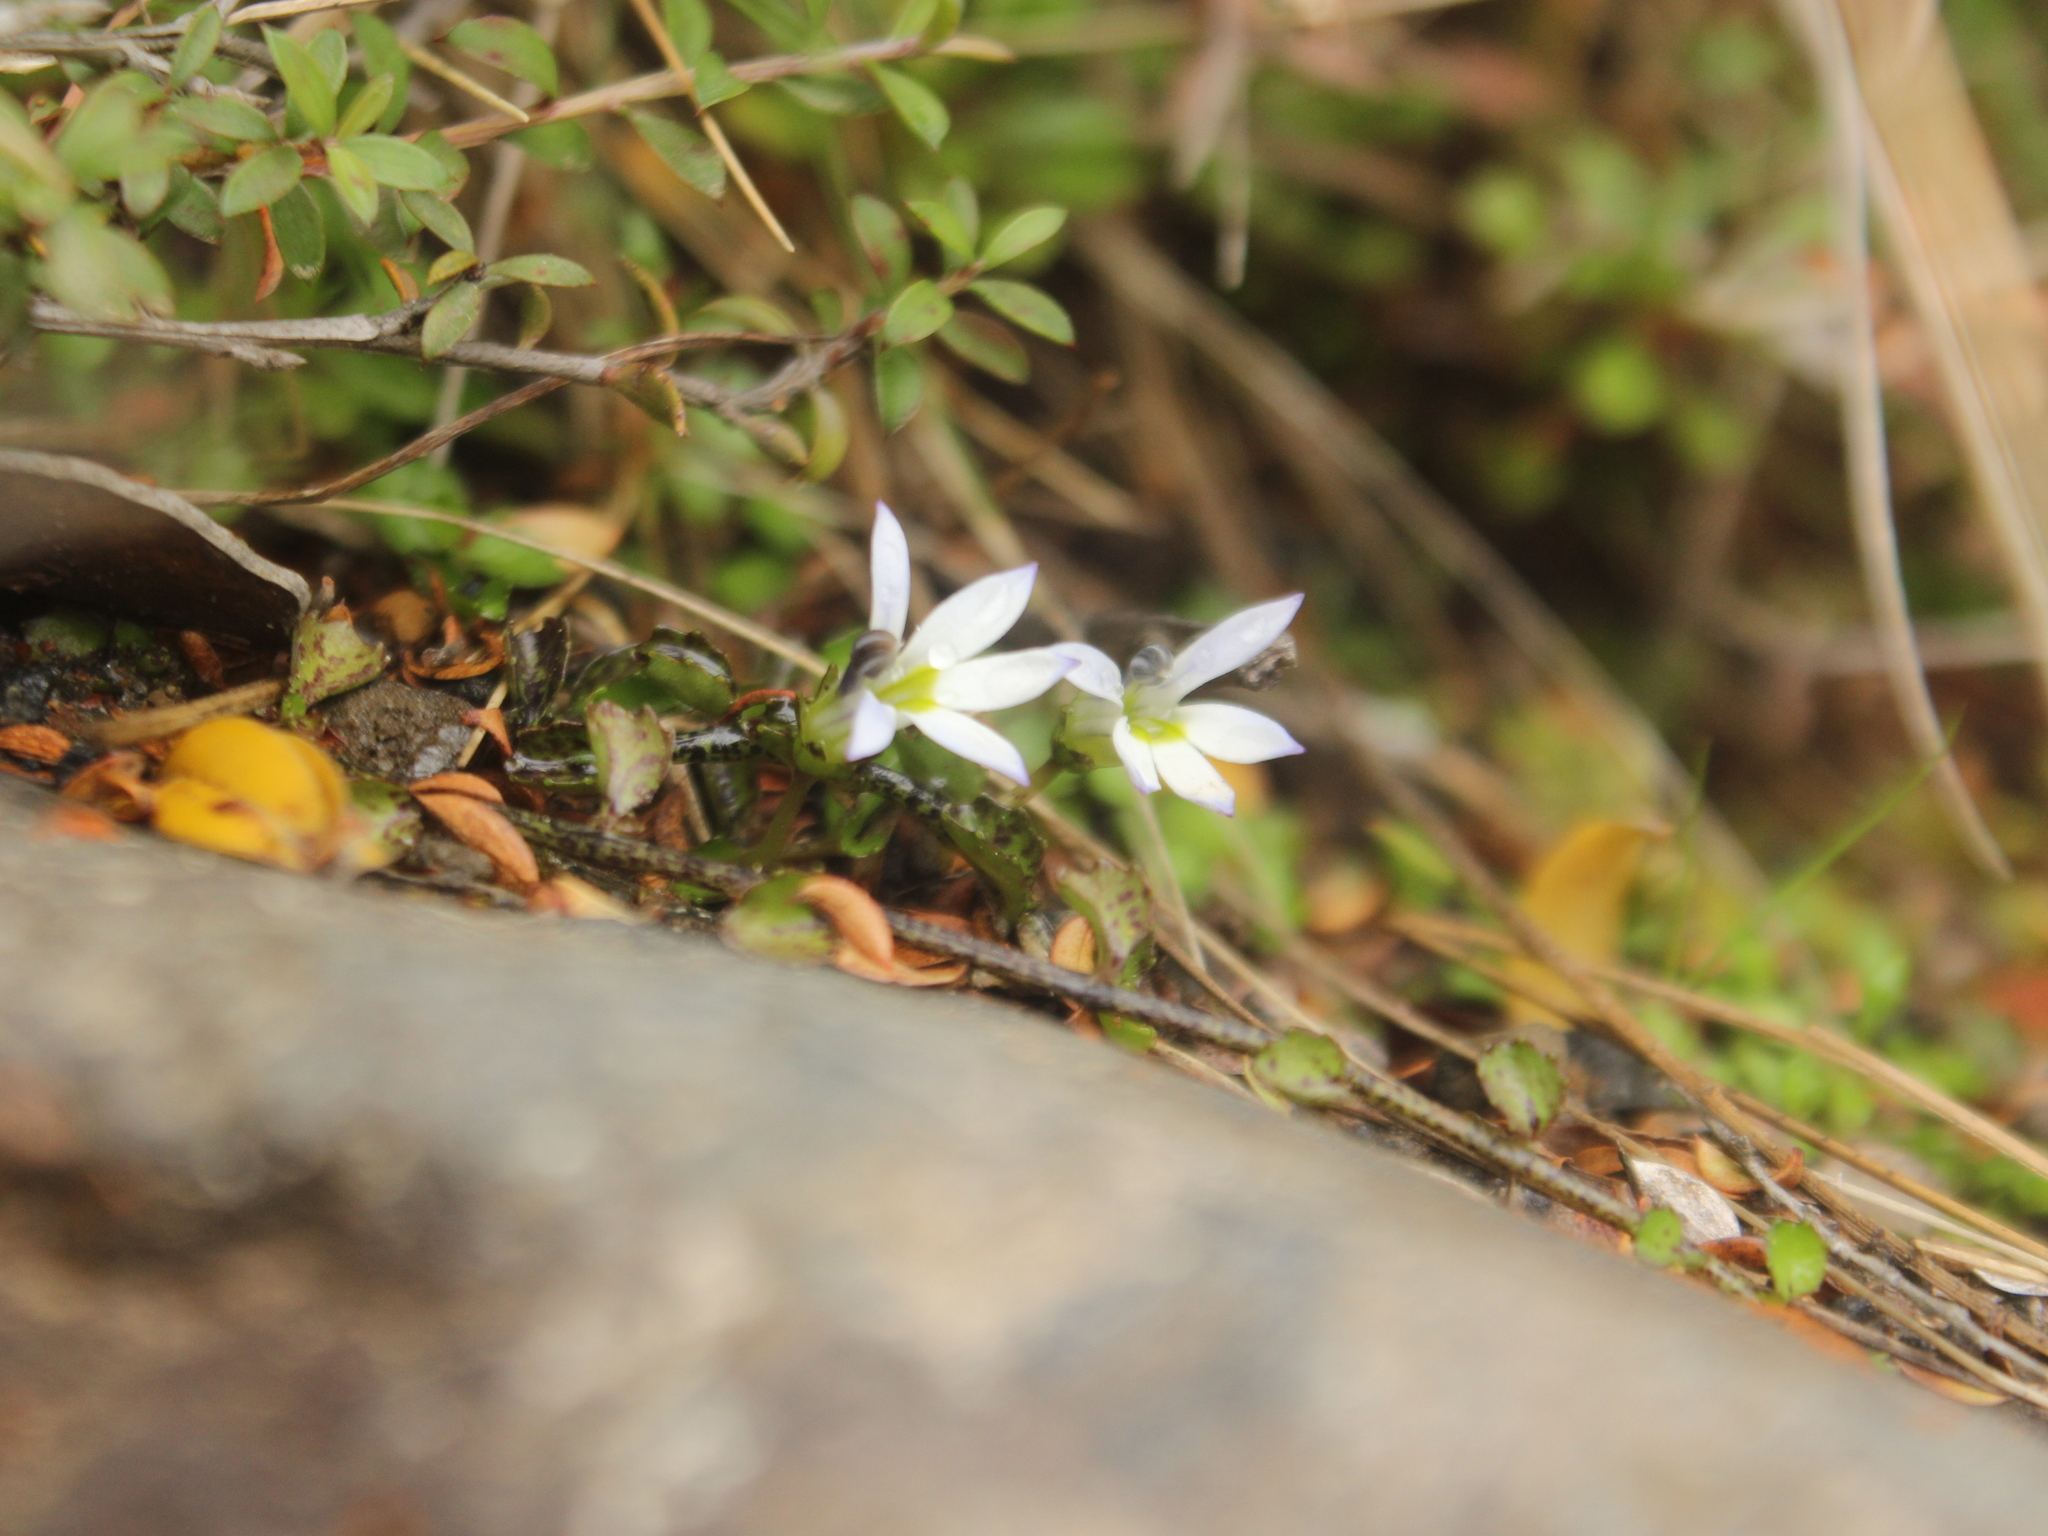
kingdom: Plantae
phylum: Tracheophyta
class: Magnoliopsida
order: Asterales
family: Campanulaceae
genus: Lobelia
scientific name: Lobelia angulata
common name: Lawn lobelia
